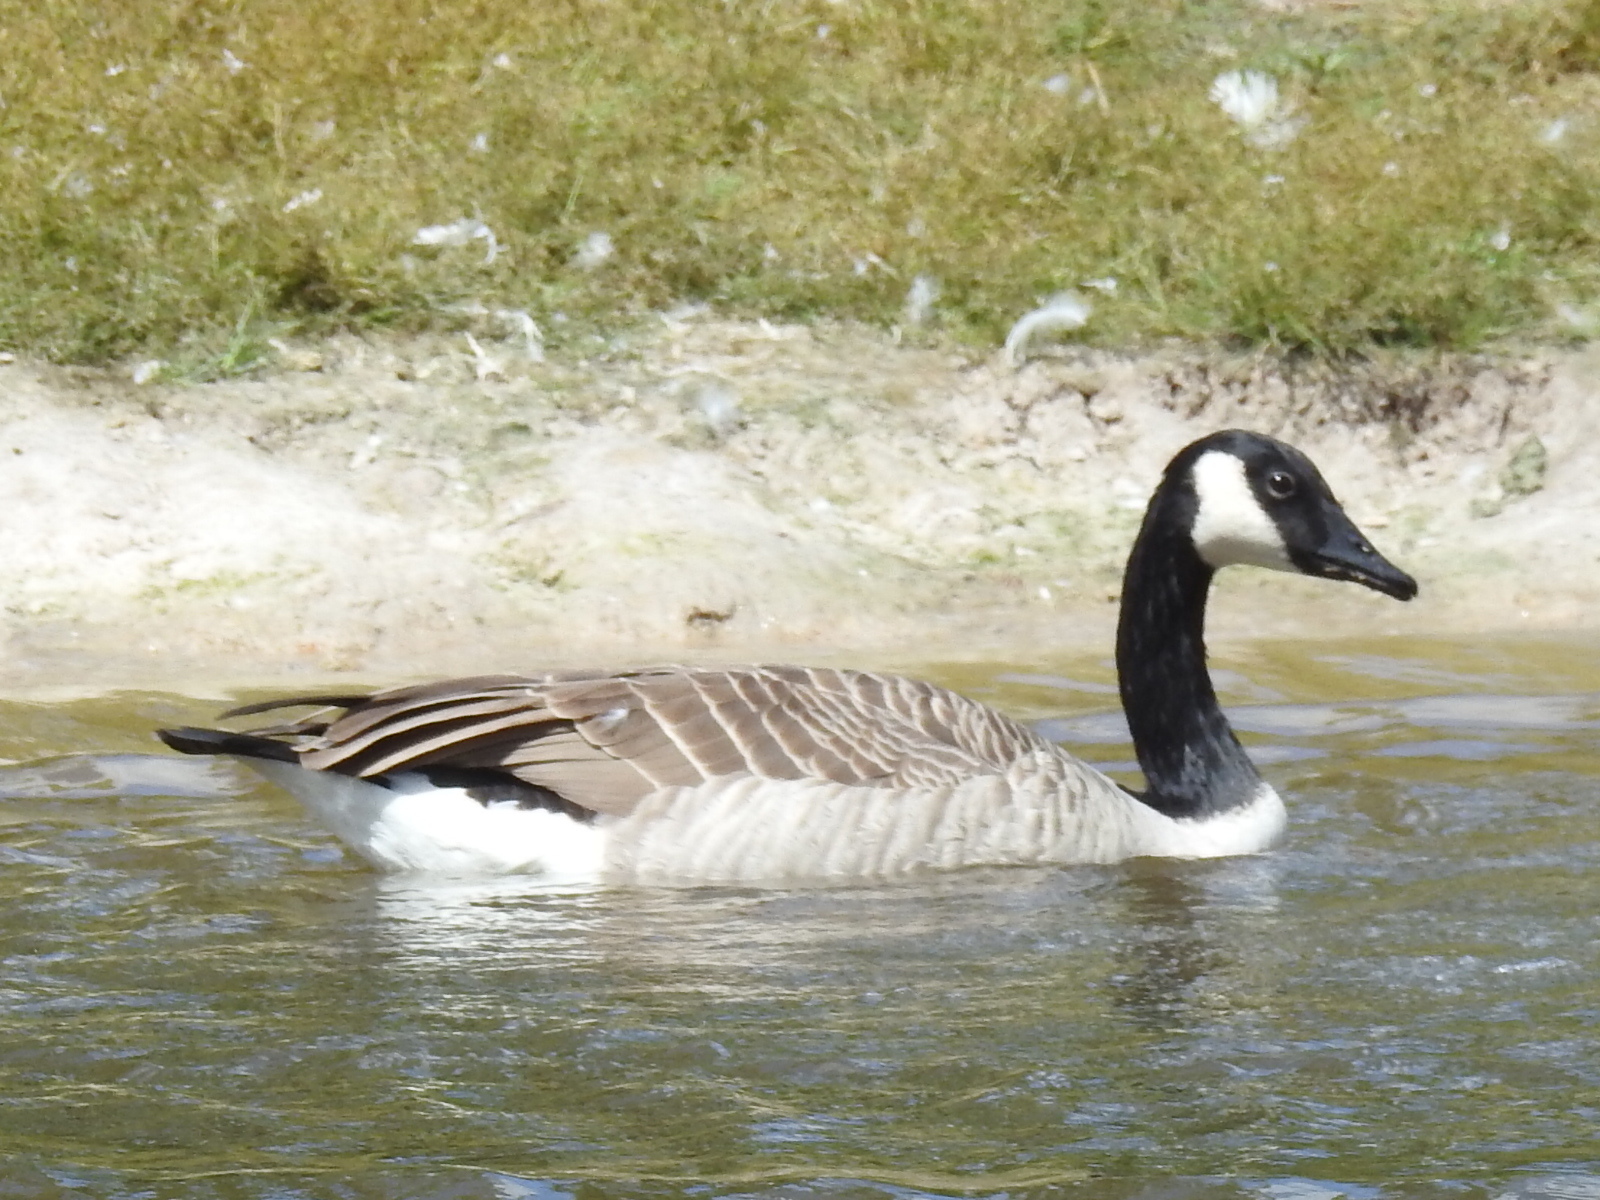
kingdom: Animalia
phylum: Chordata
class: Aves
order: Anseriformes
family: Anatidae
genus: Branta
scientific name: Branta canadensis
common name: Canada goose
